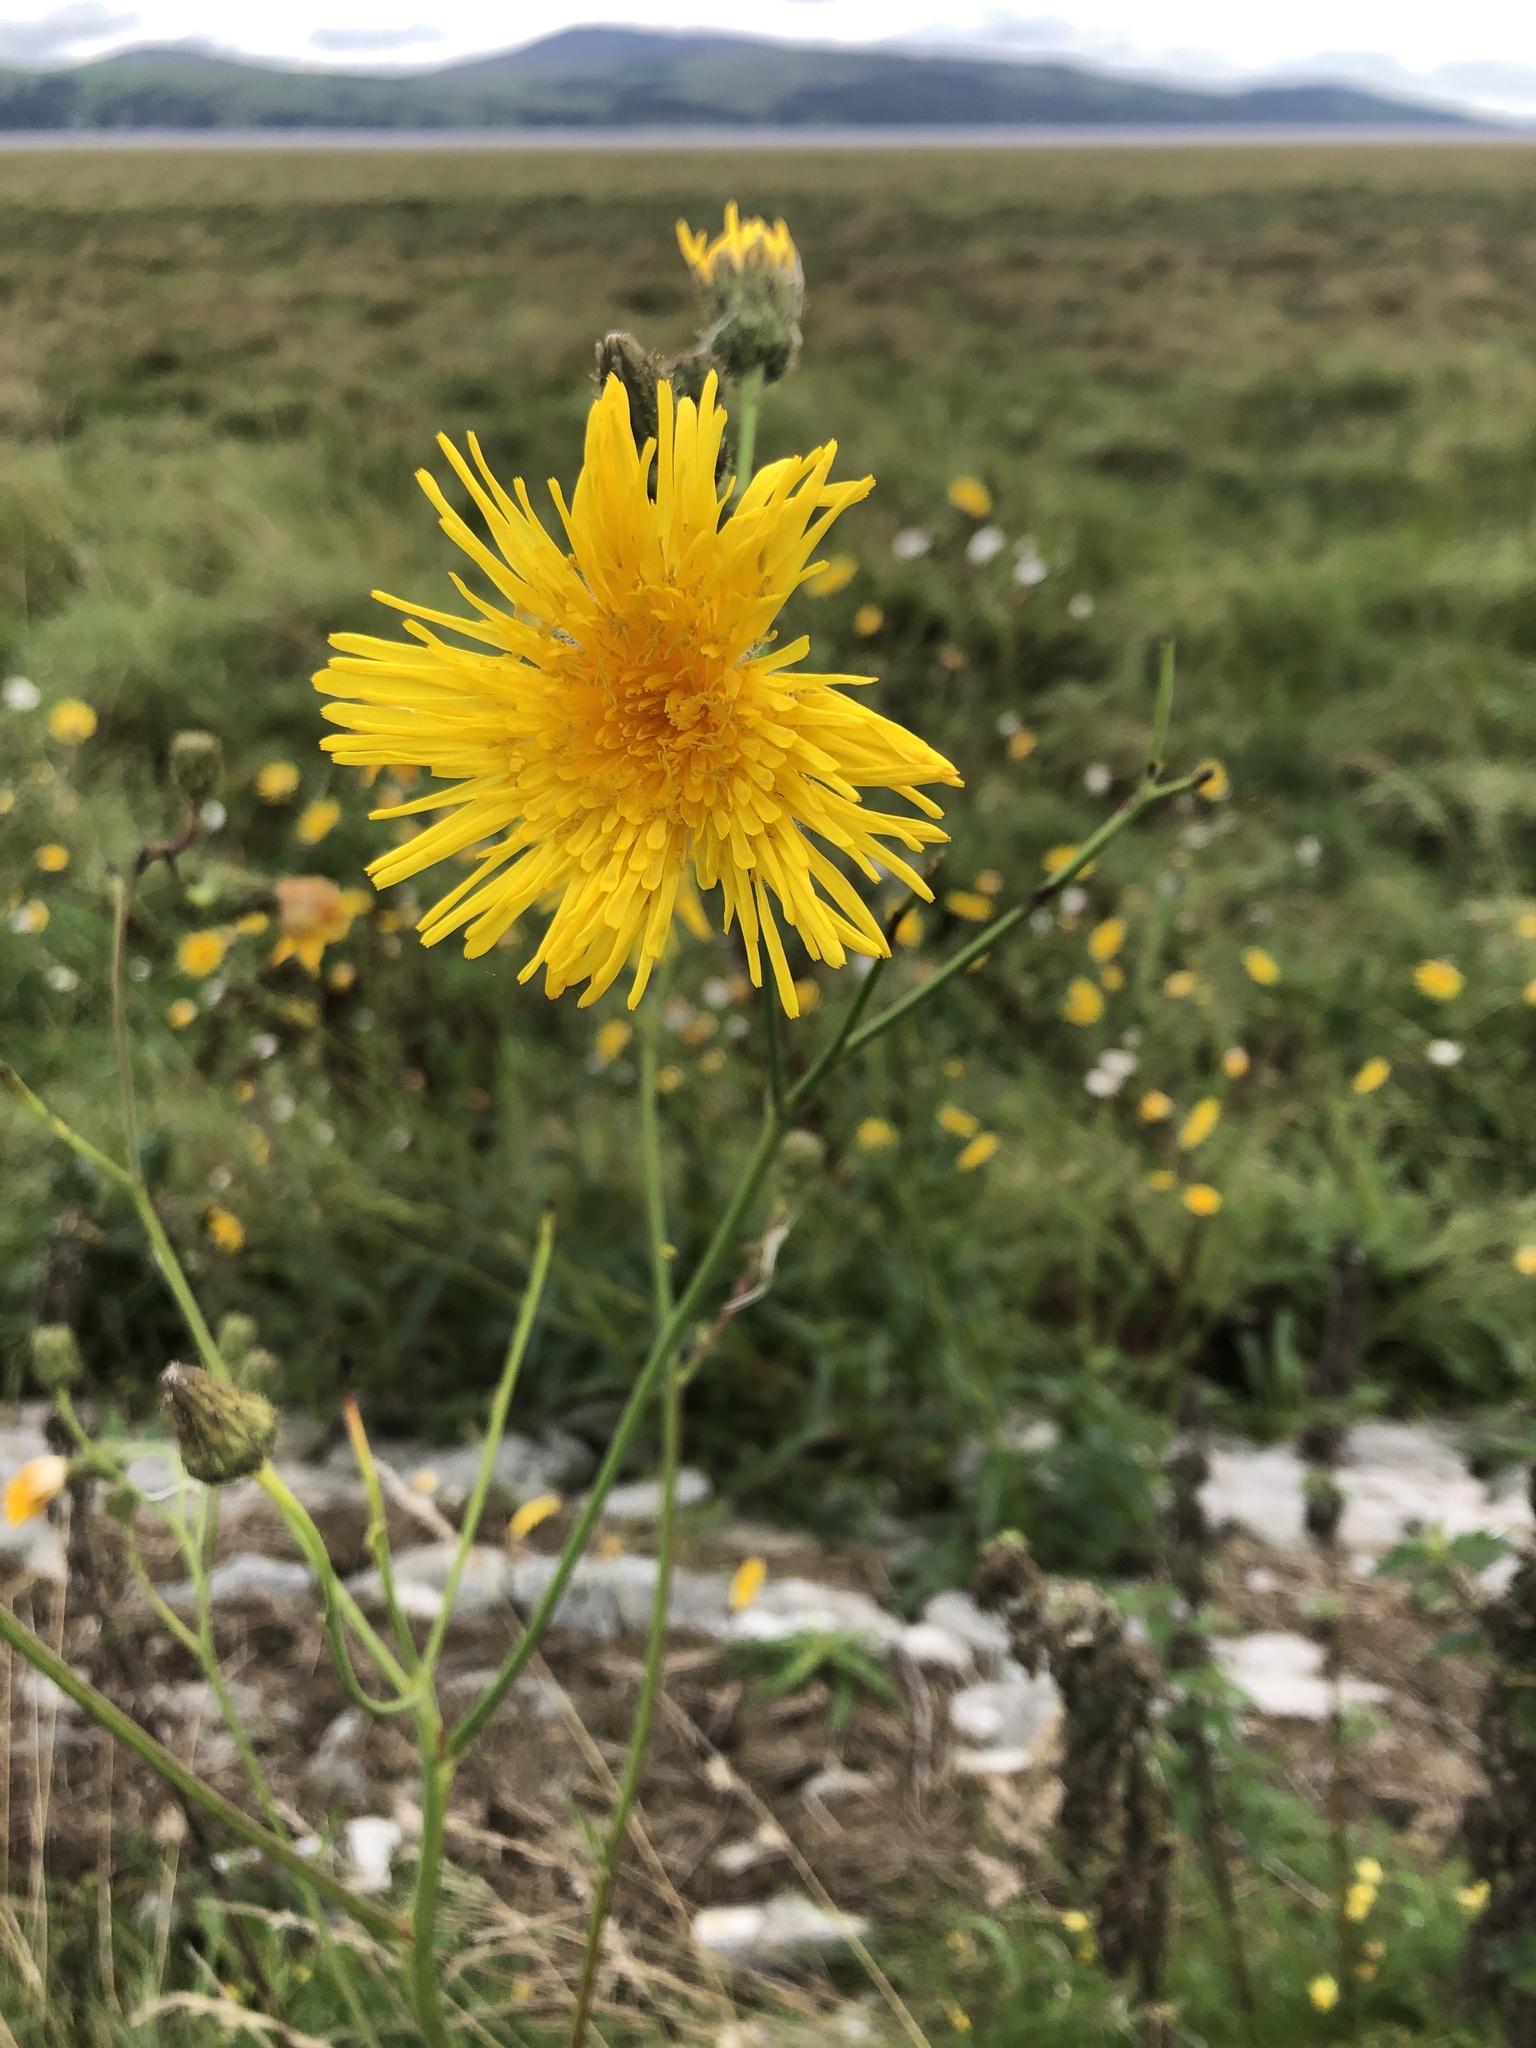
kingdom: Plantae
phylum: Tracheophyta
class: Magnoliopsida
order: Asterales
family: Asteraceae
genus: Sonchus
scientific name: Sonchus arvensis
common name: Perennial sow-thistle
